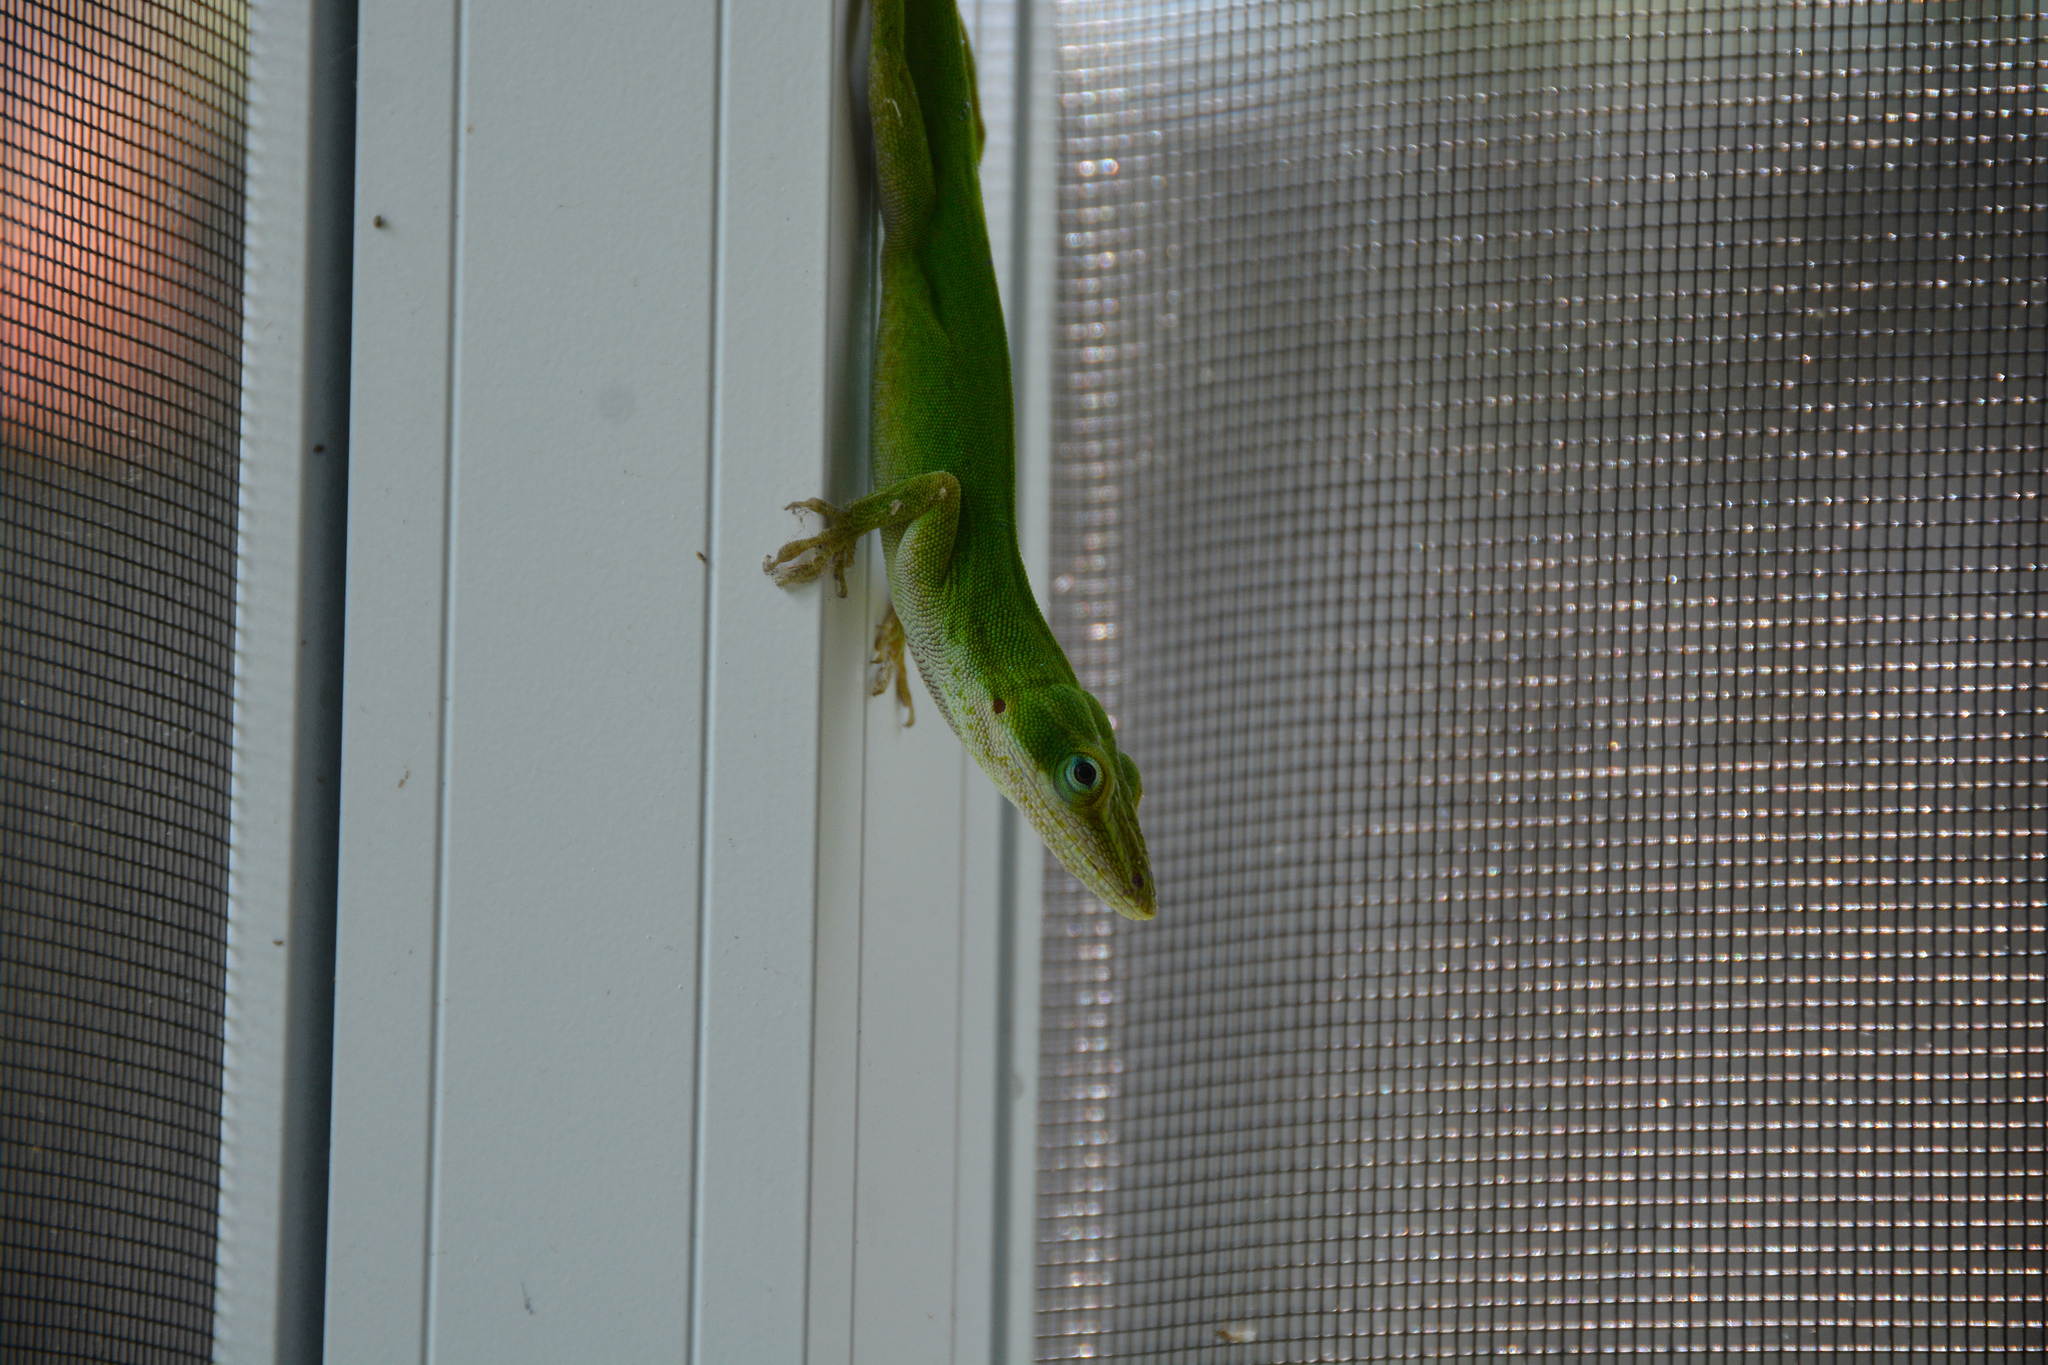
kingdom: Animalia
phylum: Chordata
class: Squamata
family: Dactyloidae
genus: Anolis
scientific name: Anolis carolinensis
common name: Green anole
